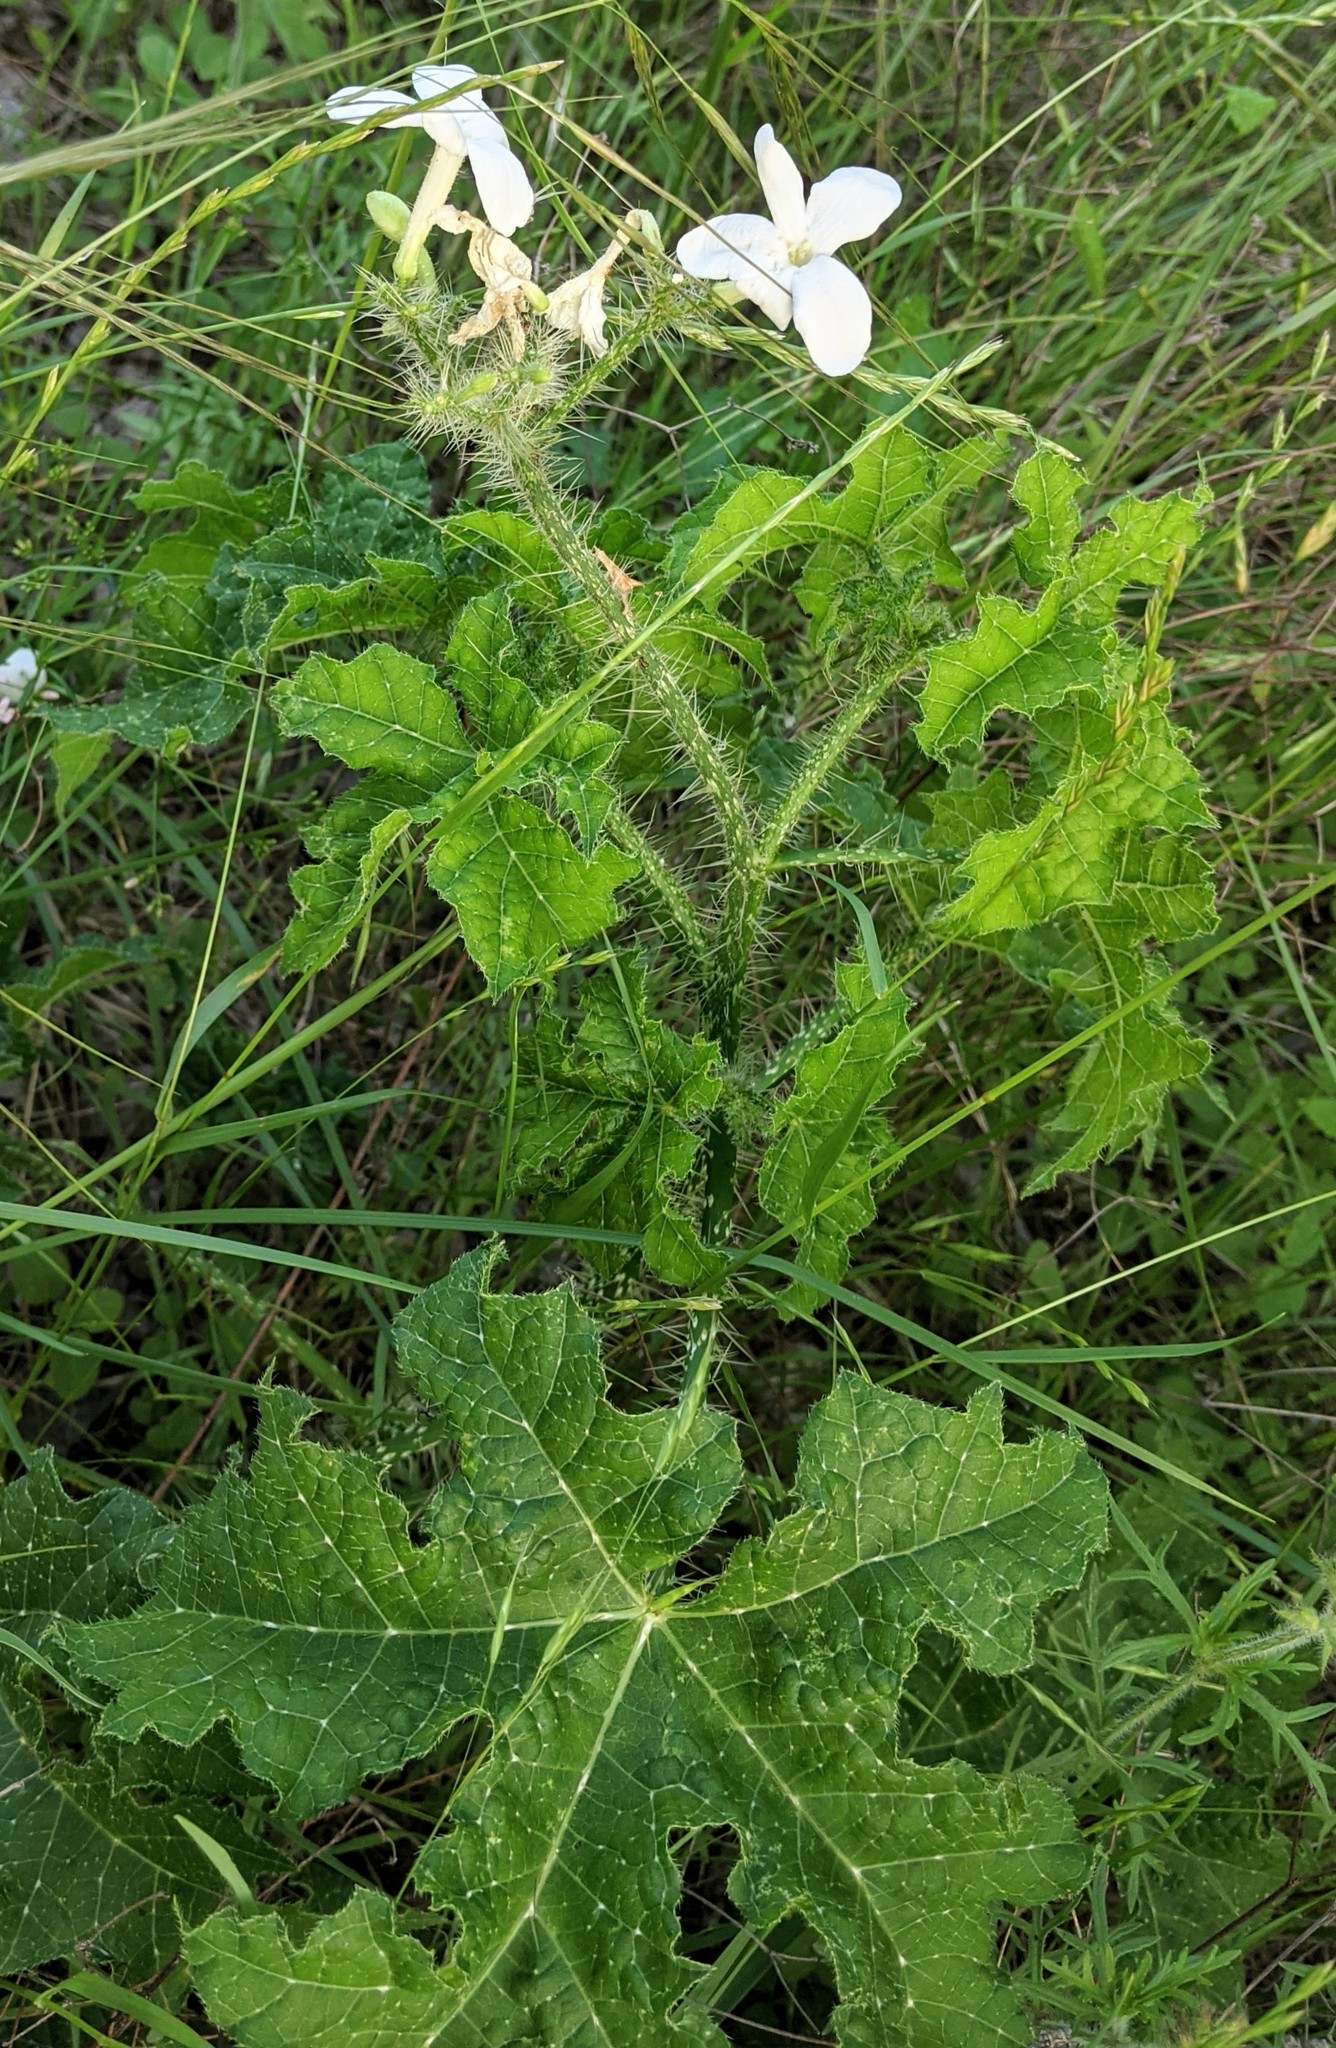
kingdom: Plantae
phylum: Tracheophyta
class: Magnoliopsida
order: Malpighiales
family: Euphorbiaceae
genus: Cnidoscolus
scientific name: Cnidoscolus texanus
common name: Texas bull-nettle
